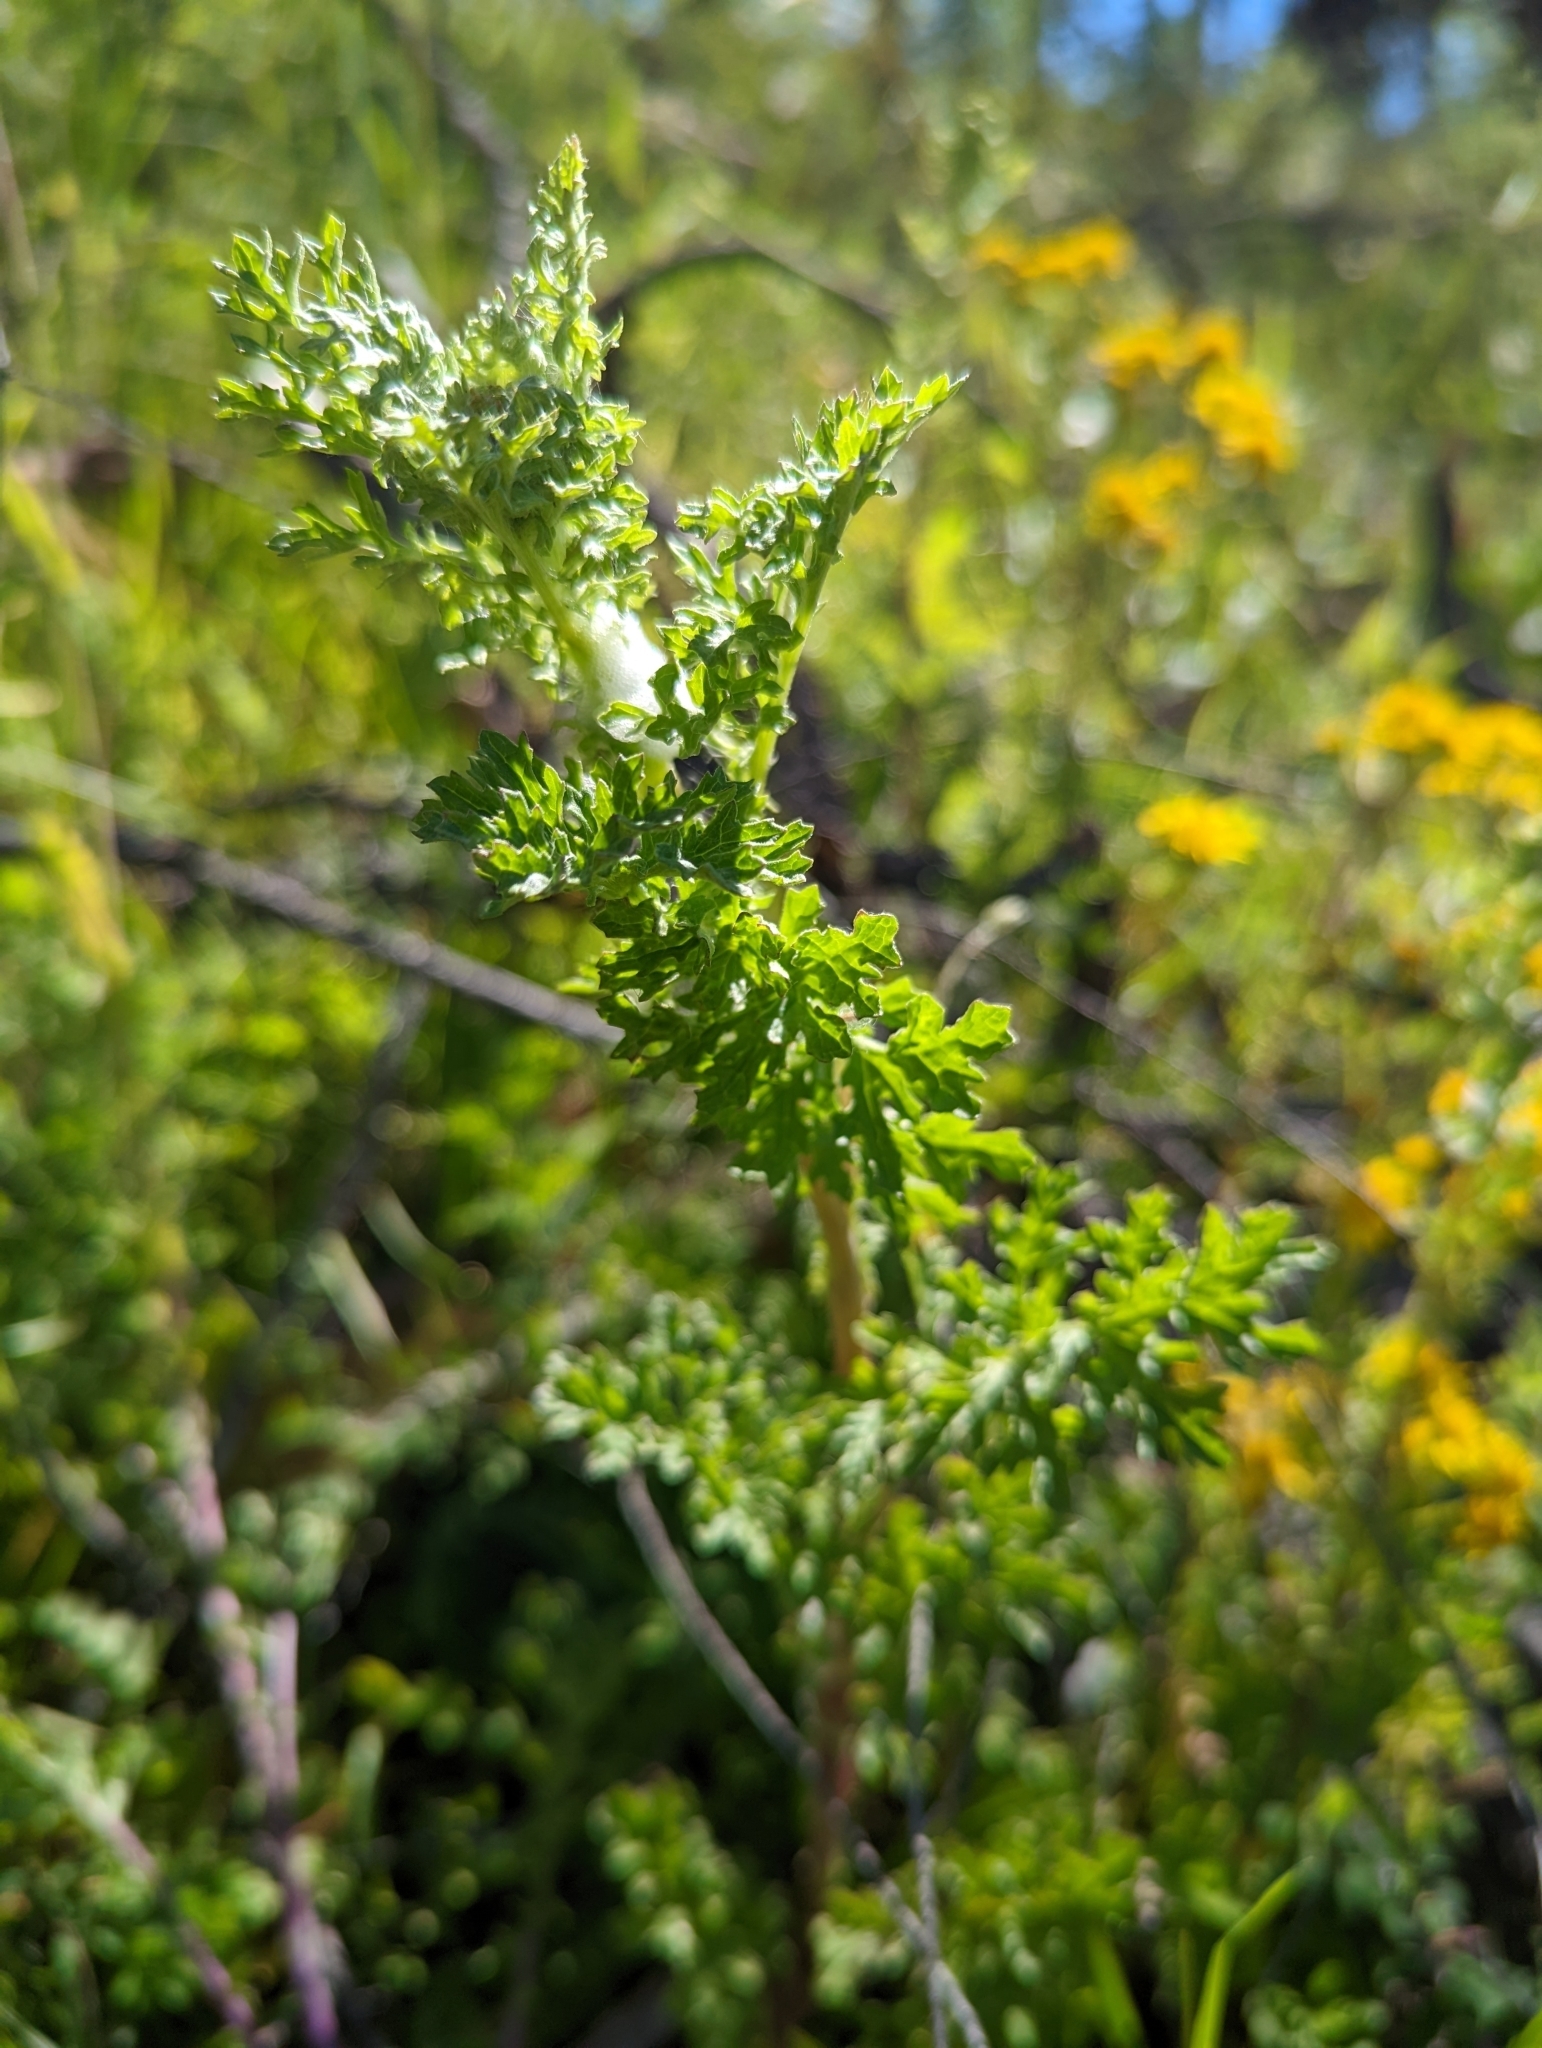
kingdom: Plantae
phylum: Tracheophyta
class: Magnoliopsida
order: Asterales
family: Asteraceae
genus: Jacobaea
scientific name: Jacobaea vulgaris
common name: Stinking willie
